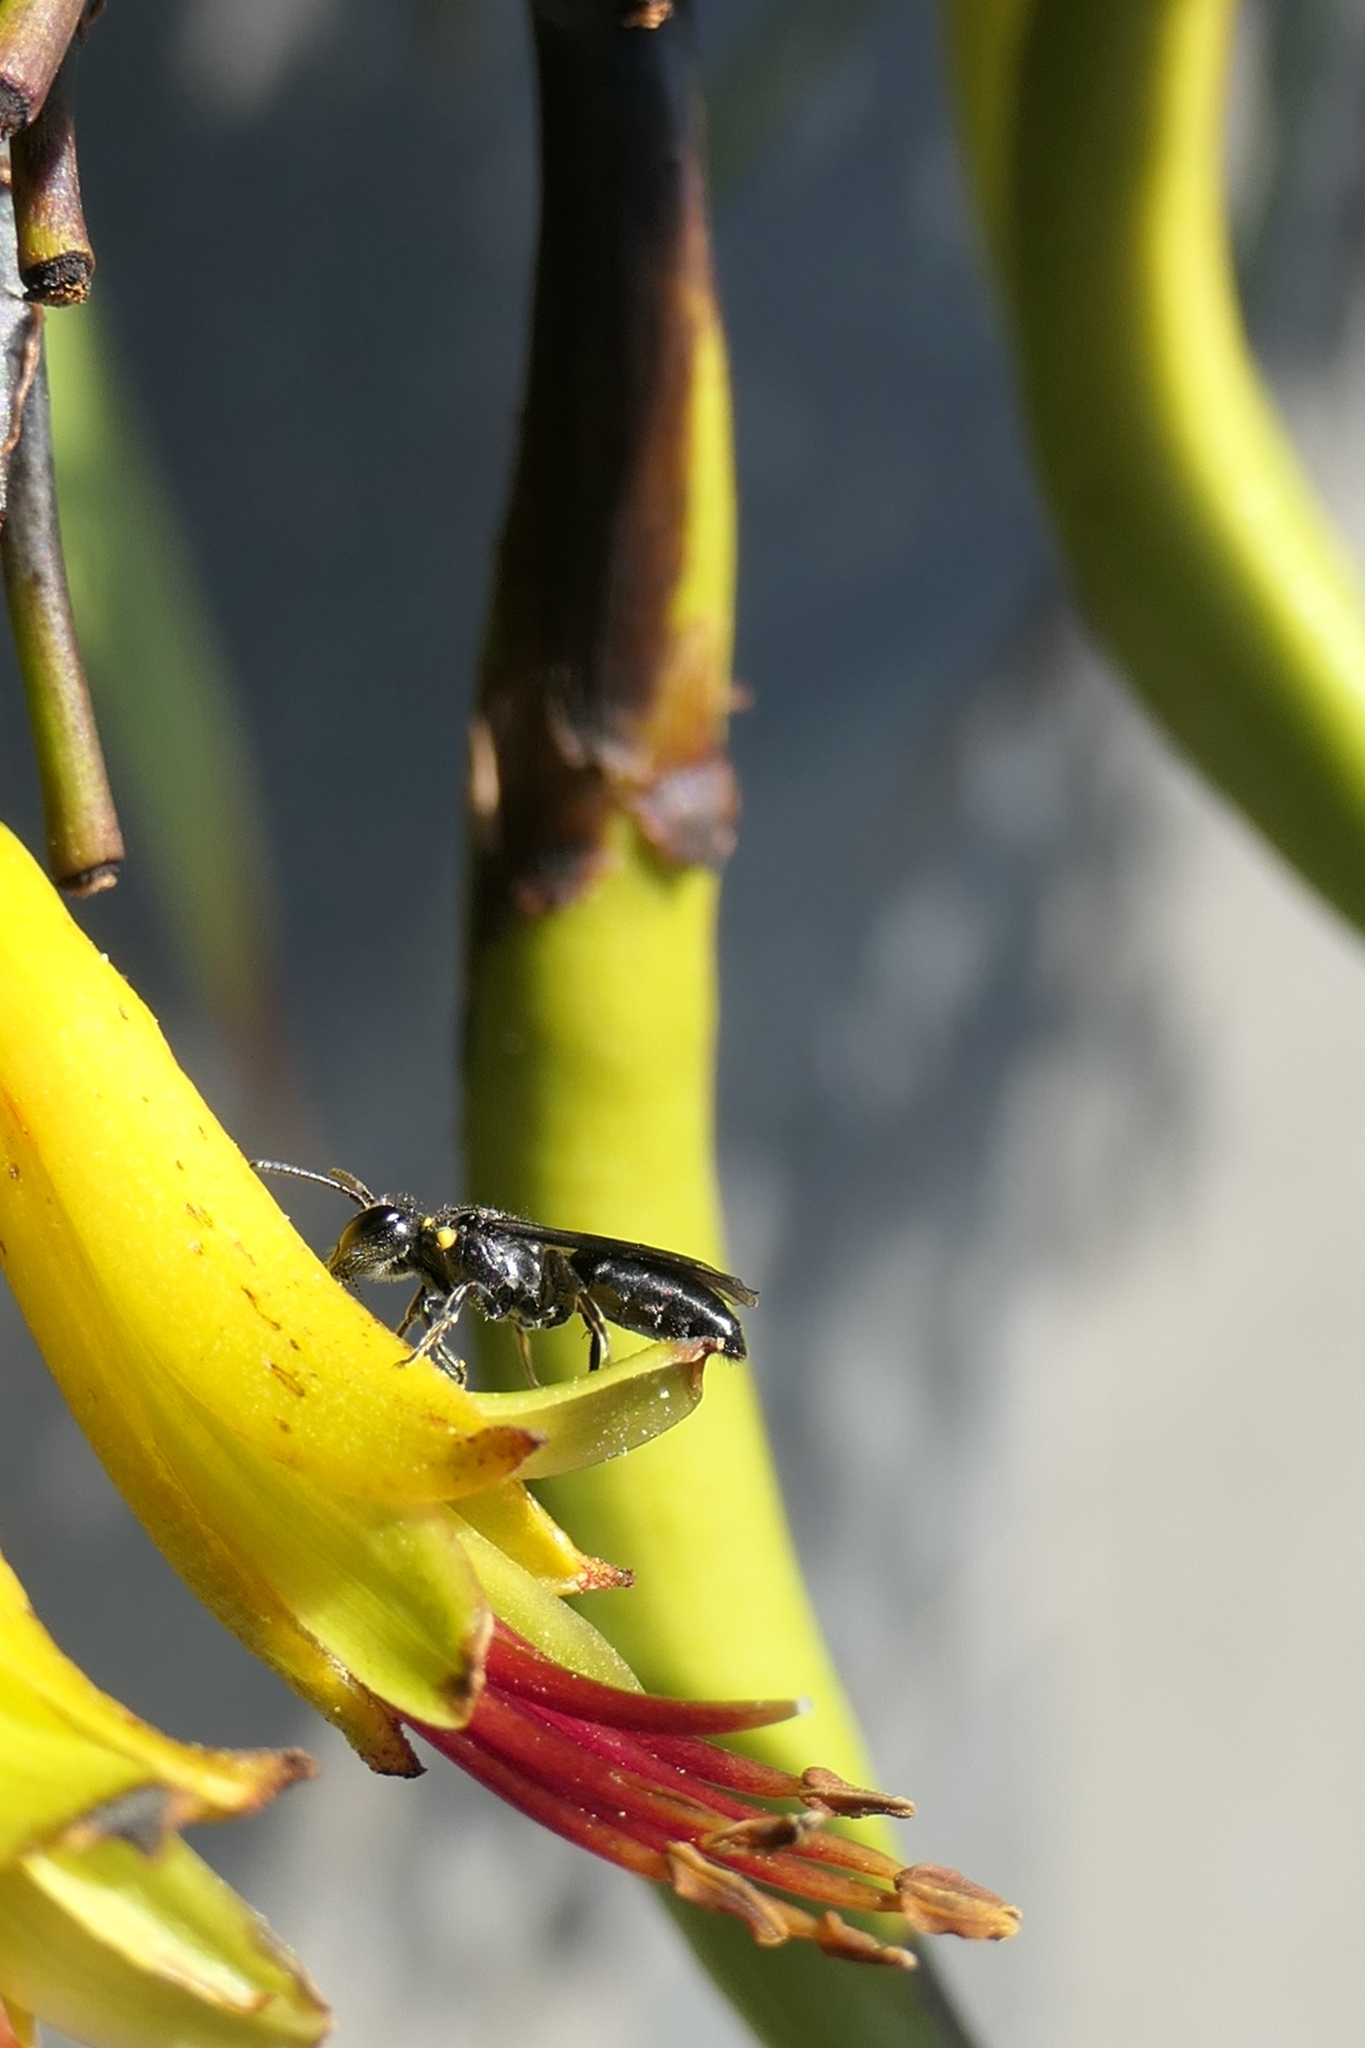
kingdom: Animalia
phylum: Arthropoda
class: Insecta
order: Hymenoptera
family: Colletidae
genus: Hylaeus
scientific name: Hylaeus relegatus
